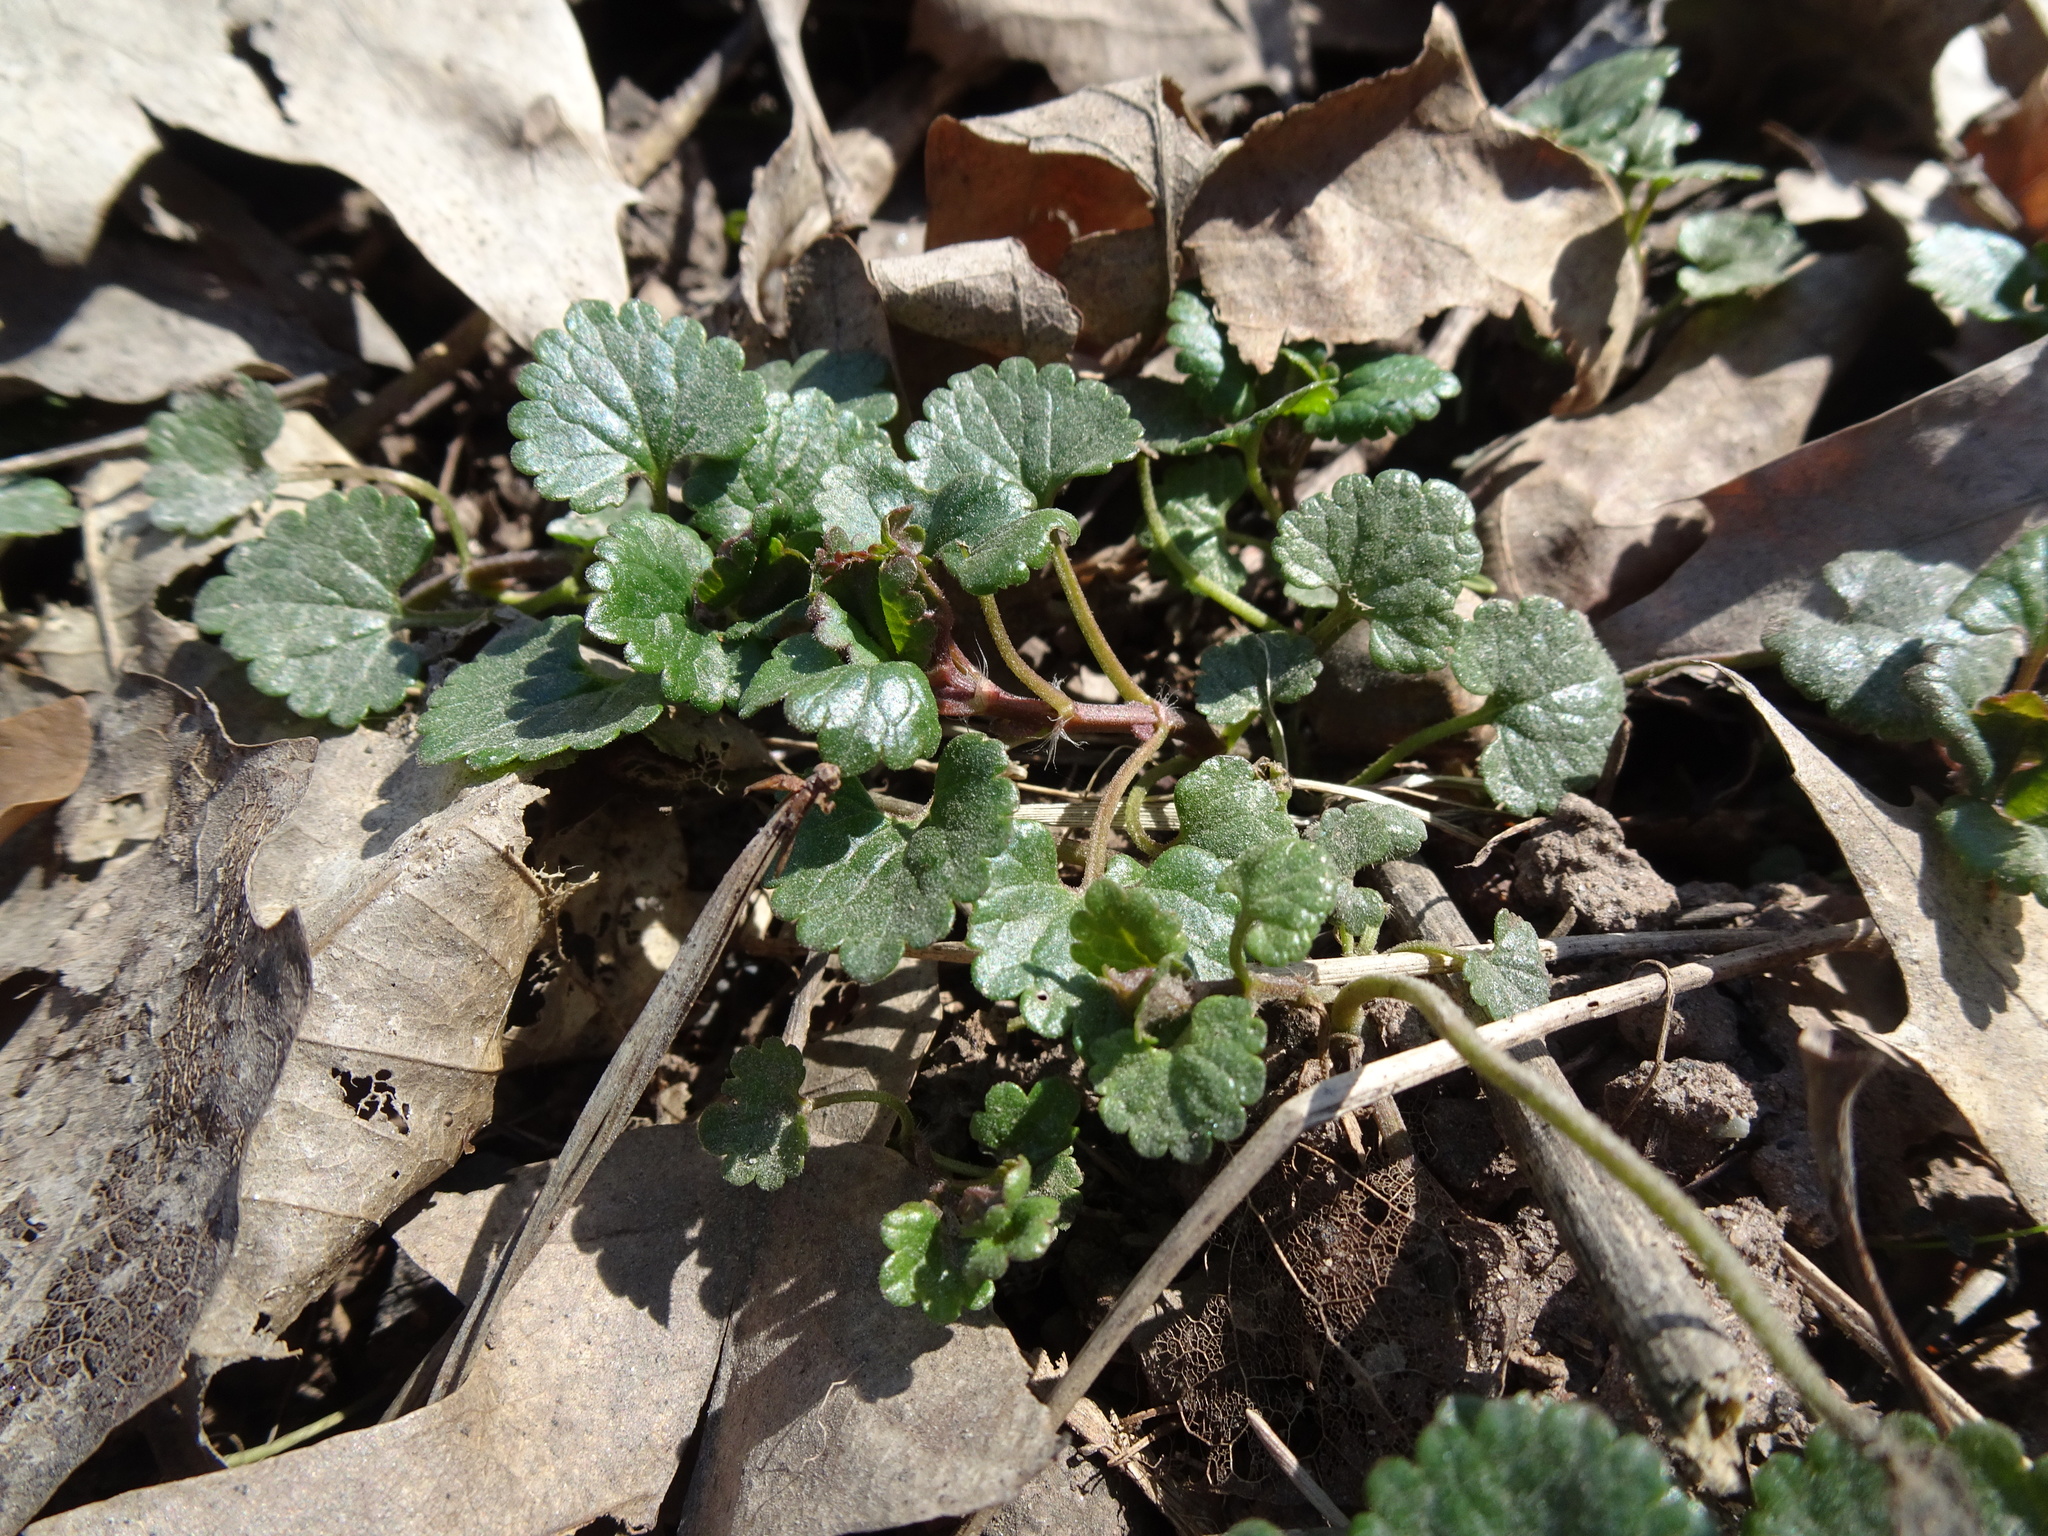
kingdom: Plantae
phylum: Tracheophyta
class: Magnoliopsida
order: Lamiales
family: Lamiaceae
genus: Glechoma
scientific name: Glechoma hederacea
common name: Ground ivy
